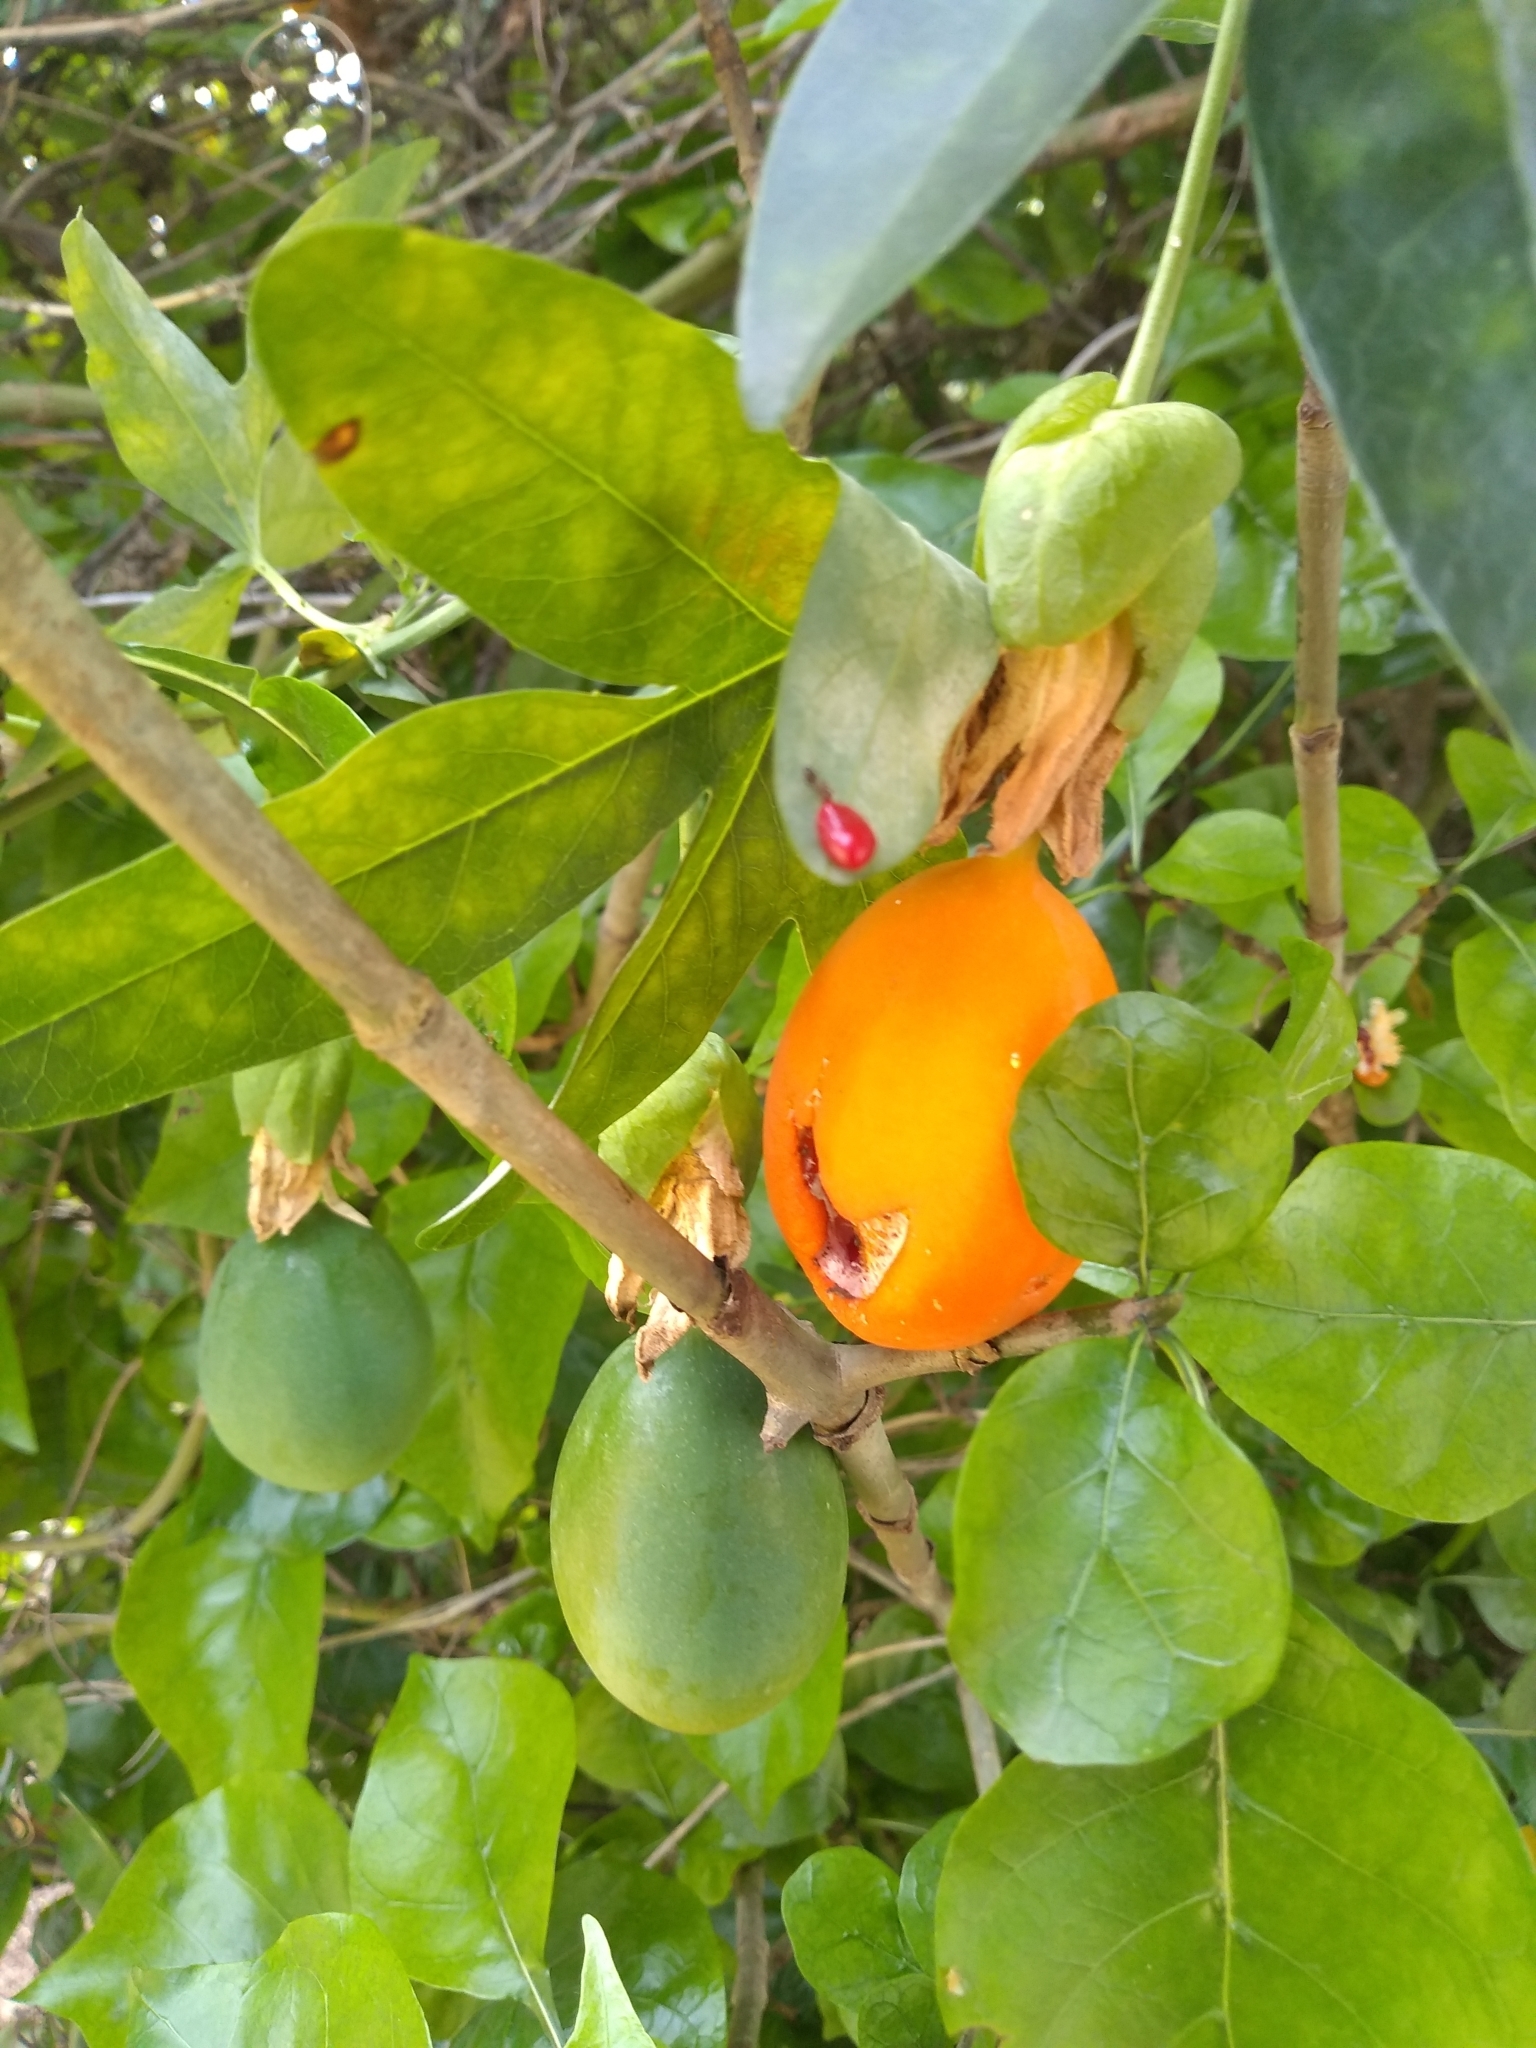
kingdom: Plantae
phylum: Tracheophyta
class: Magnoliopsida
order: Malpighiales
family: Passifloraceae
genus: Passiflora
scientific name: Passiflora caerulea
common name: Blue passionflower
